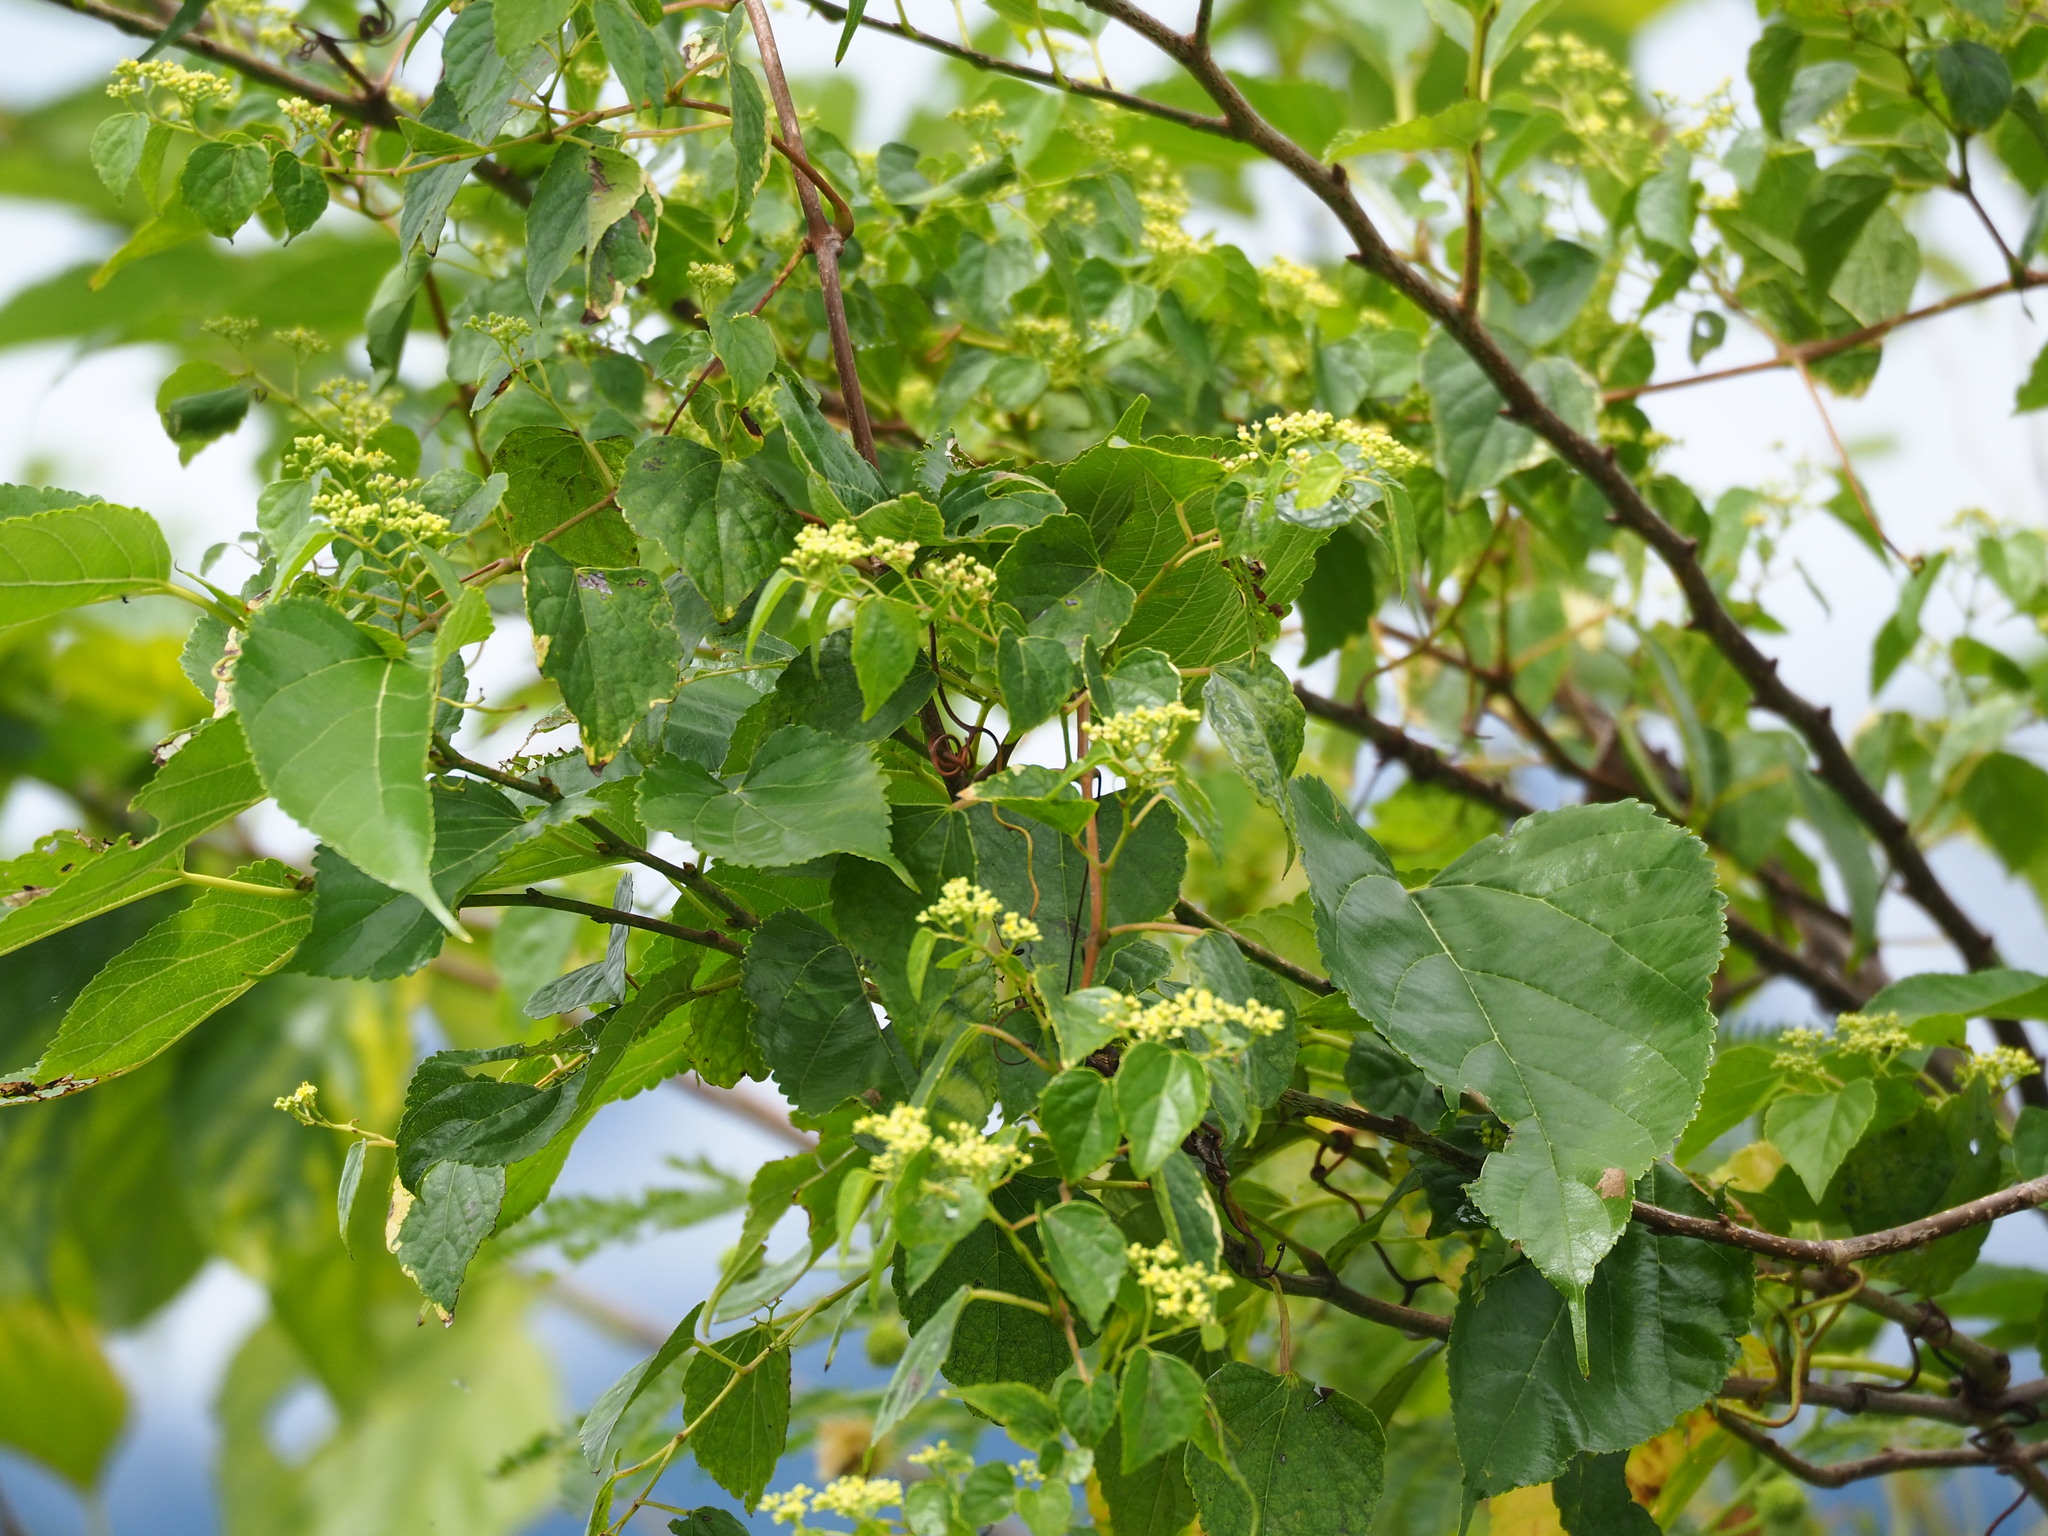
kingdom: Plantae
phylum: Tracheophyta
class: Magnoliopsida
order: Vitales
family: Vitaceae
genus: Ampelopsis
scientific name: Ampelopsis glandulosa
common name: Amur peppervine
